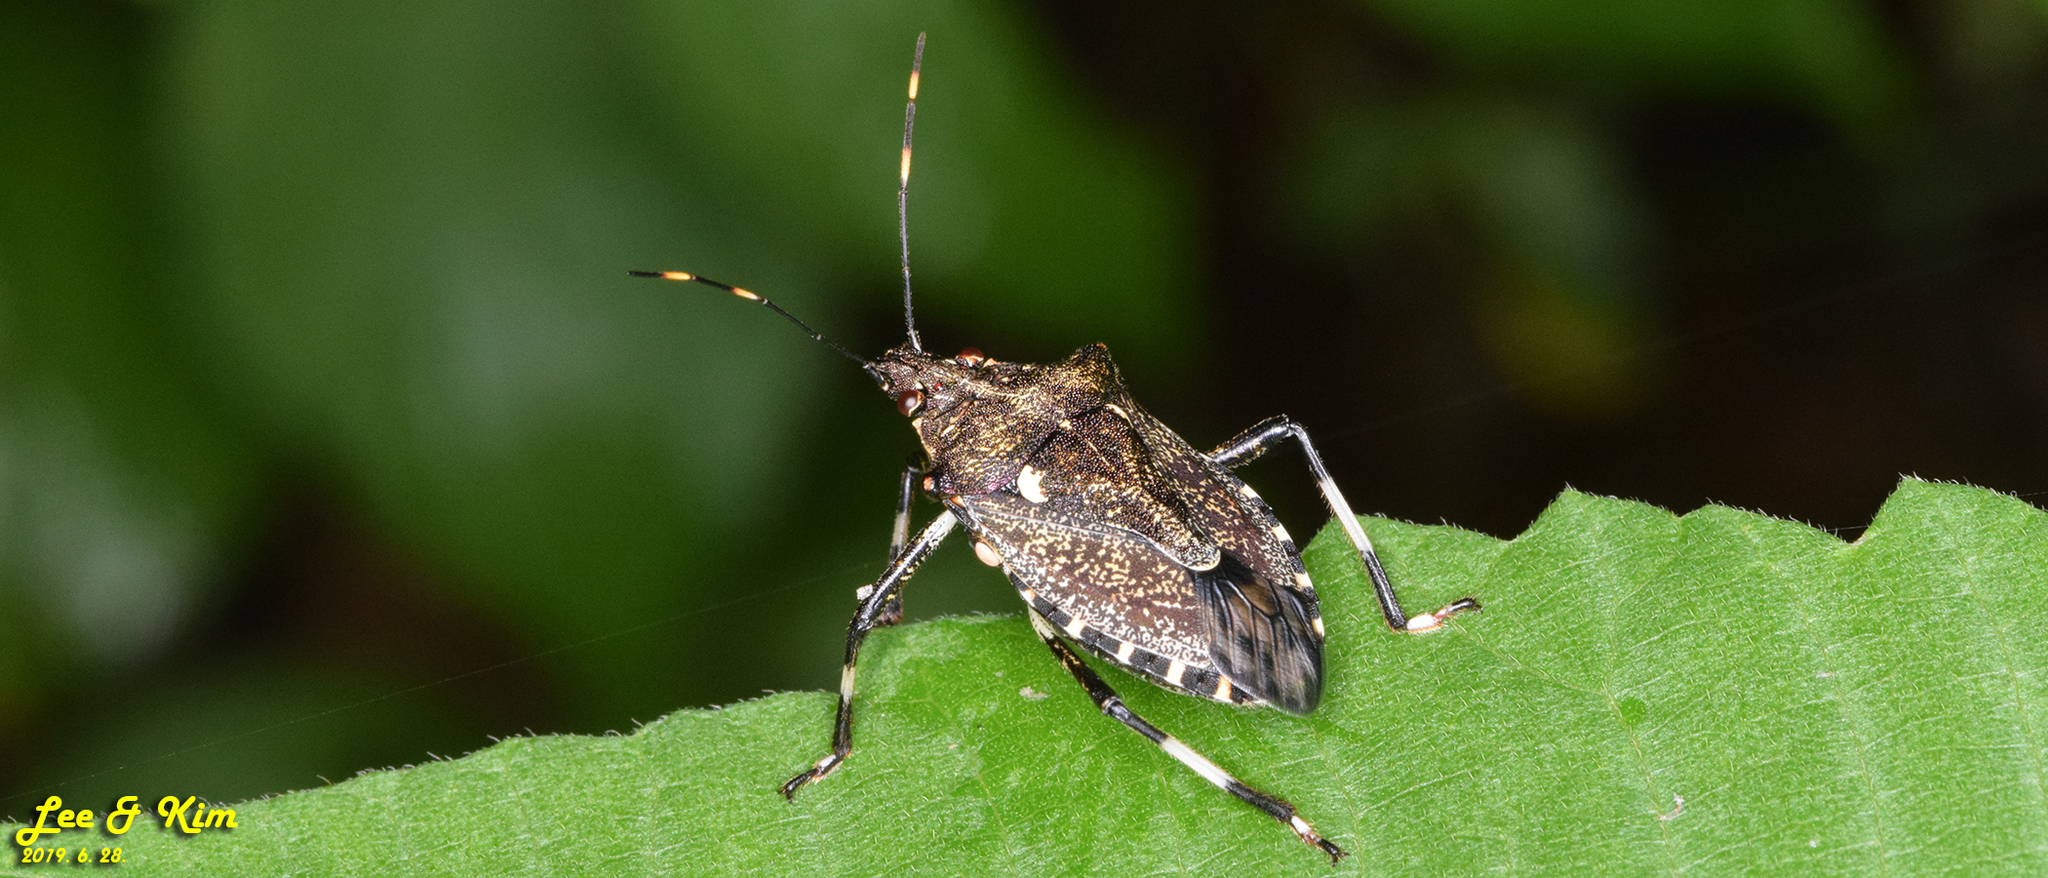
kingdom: Animalia
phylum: Arthropoda
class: Insecta
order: Hemiptera
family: Pentatomidae
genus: Dalpada
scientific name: Dalpada cinctipes
